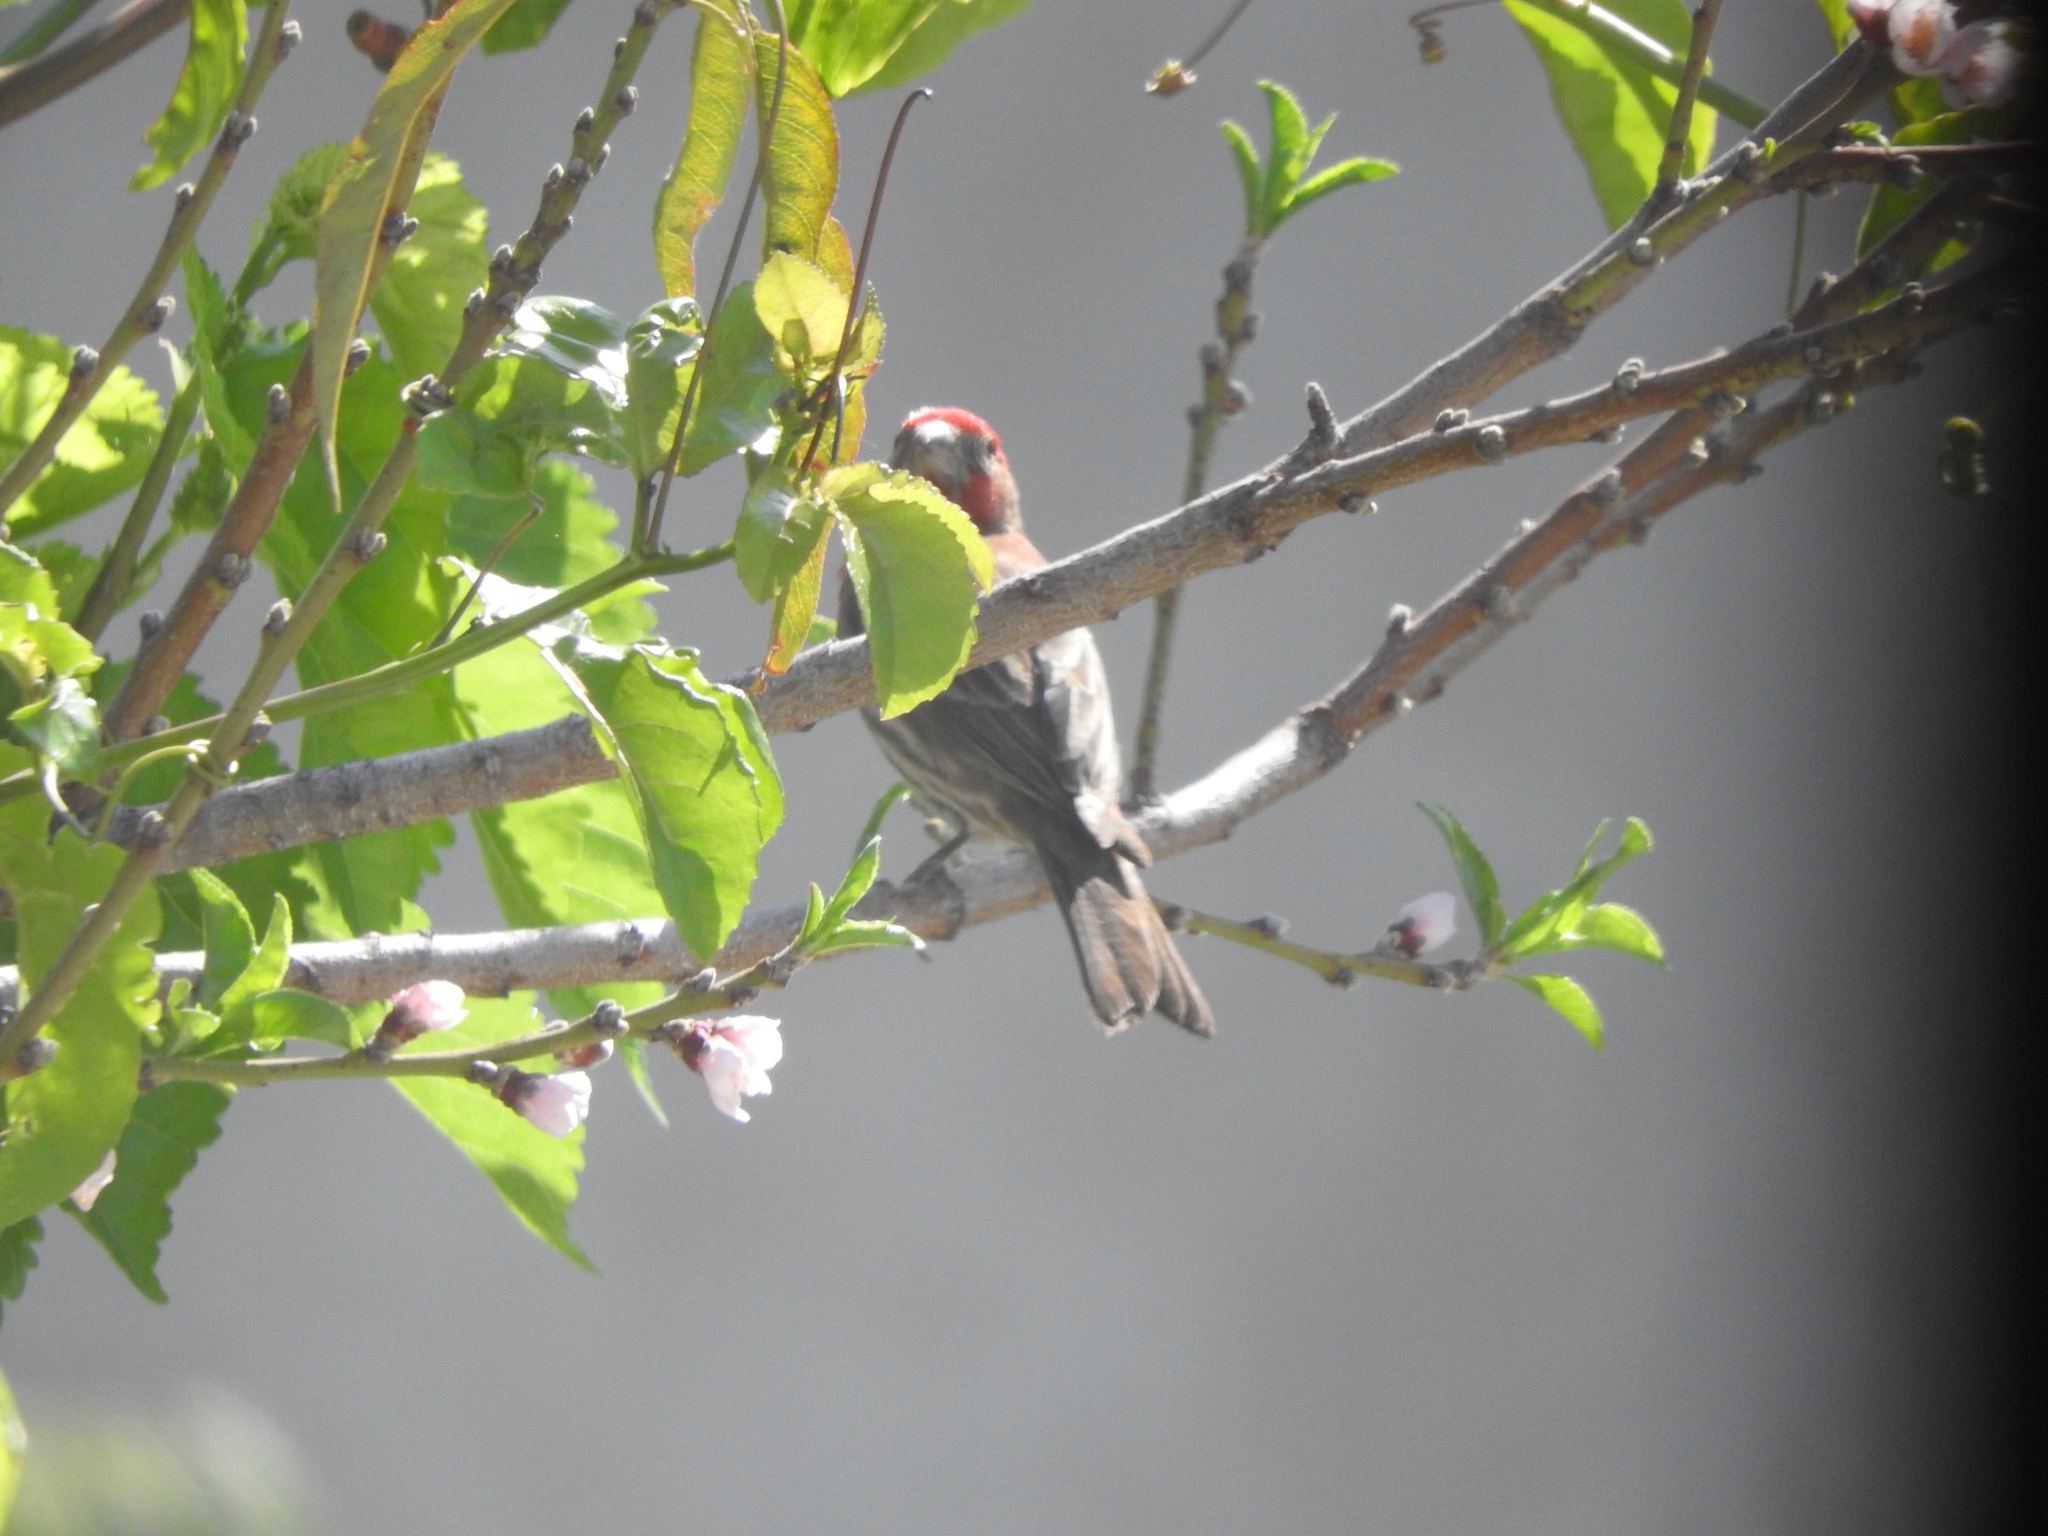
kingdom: Animalia
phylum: Chordata
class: Aves
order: Passeriformes
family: Fringillidae
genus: Haemorhous
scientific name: Haemorhous mexicanus
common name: House finch
